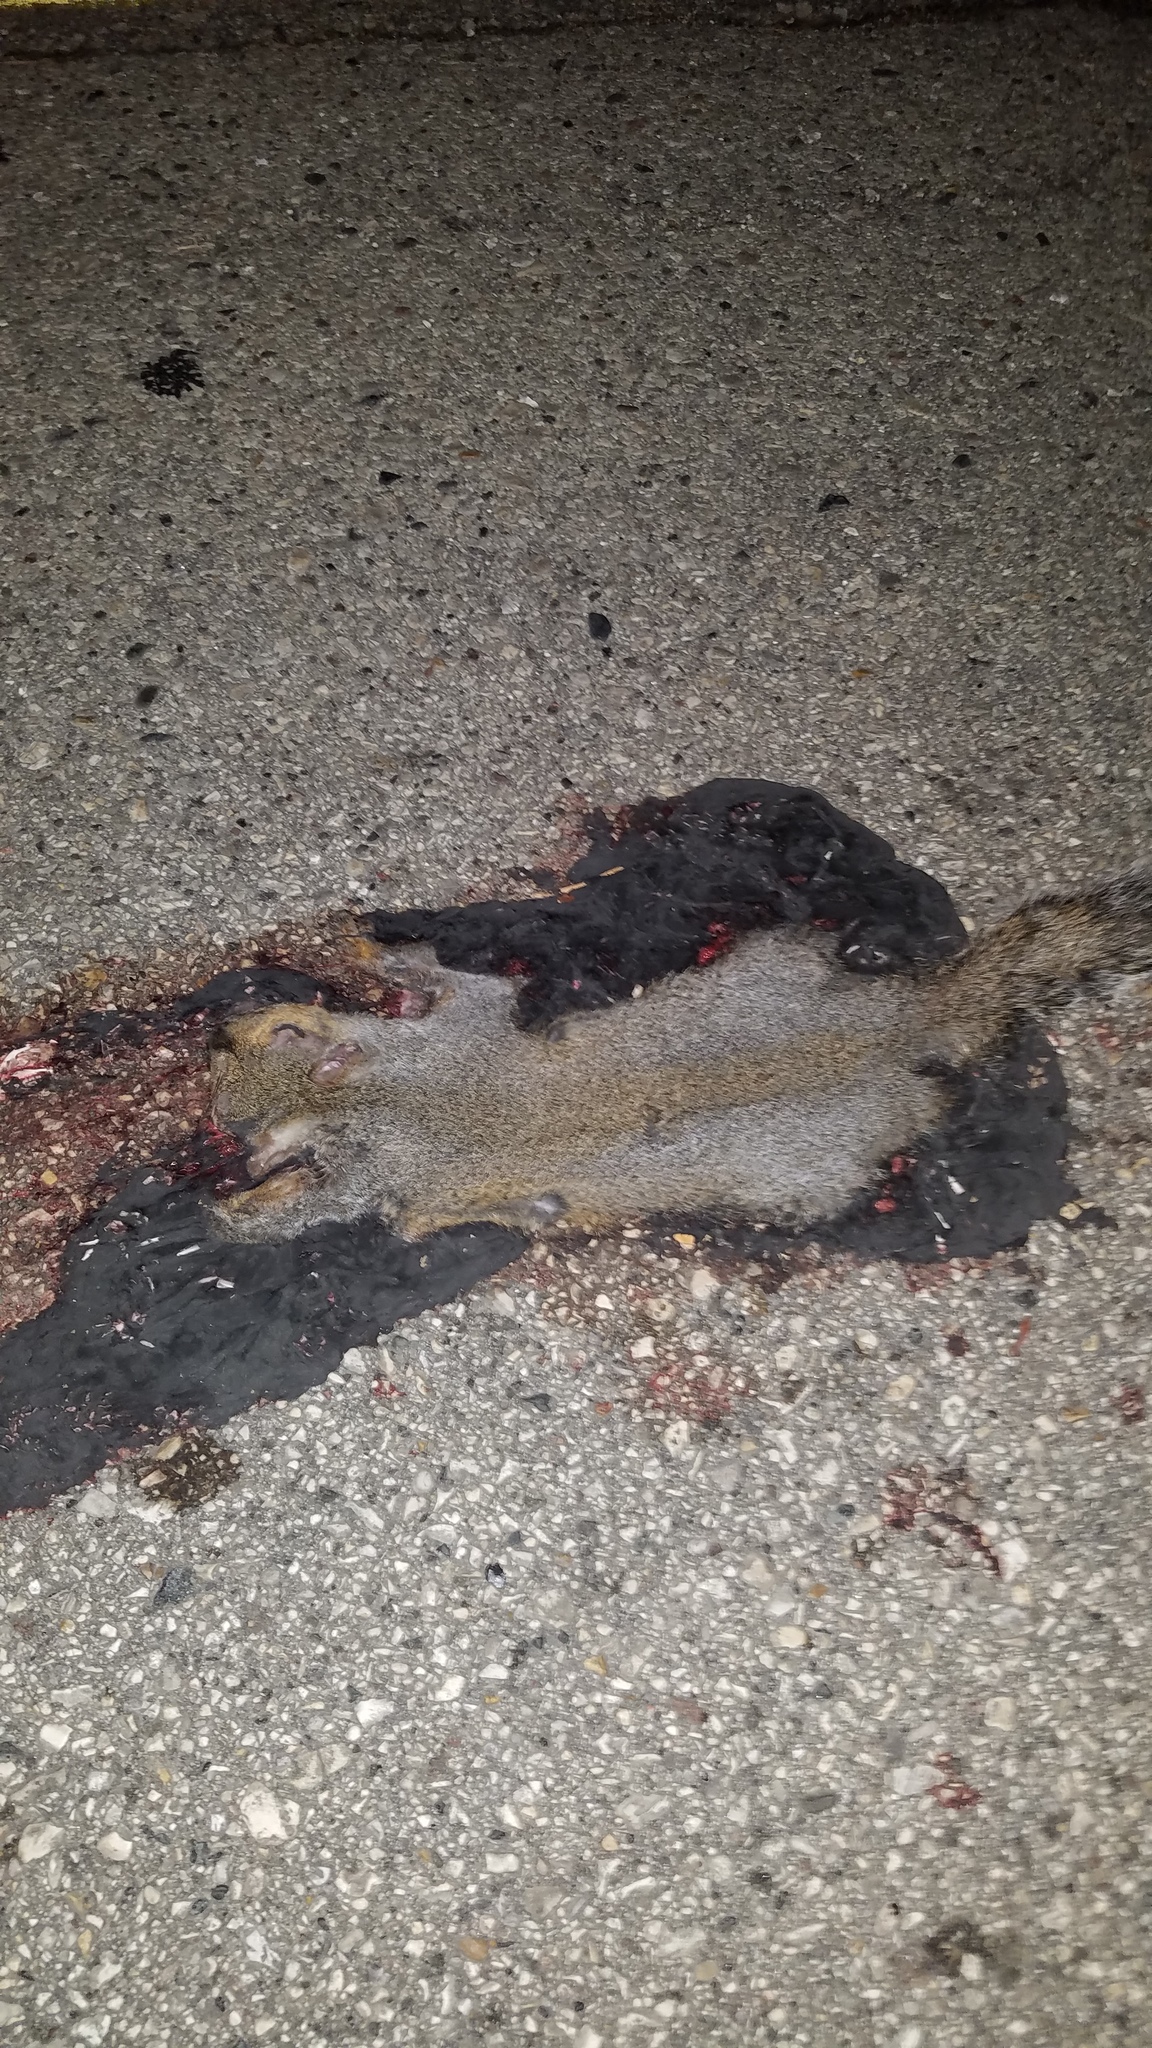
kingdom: Animalia
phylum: Chordata
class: Mammalia
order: Rodentia
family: Sciuridae
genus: Sciurus
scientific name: Sciurus carolinensis
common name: Eastern gray squirrel
